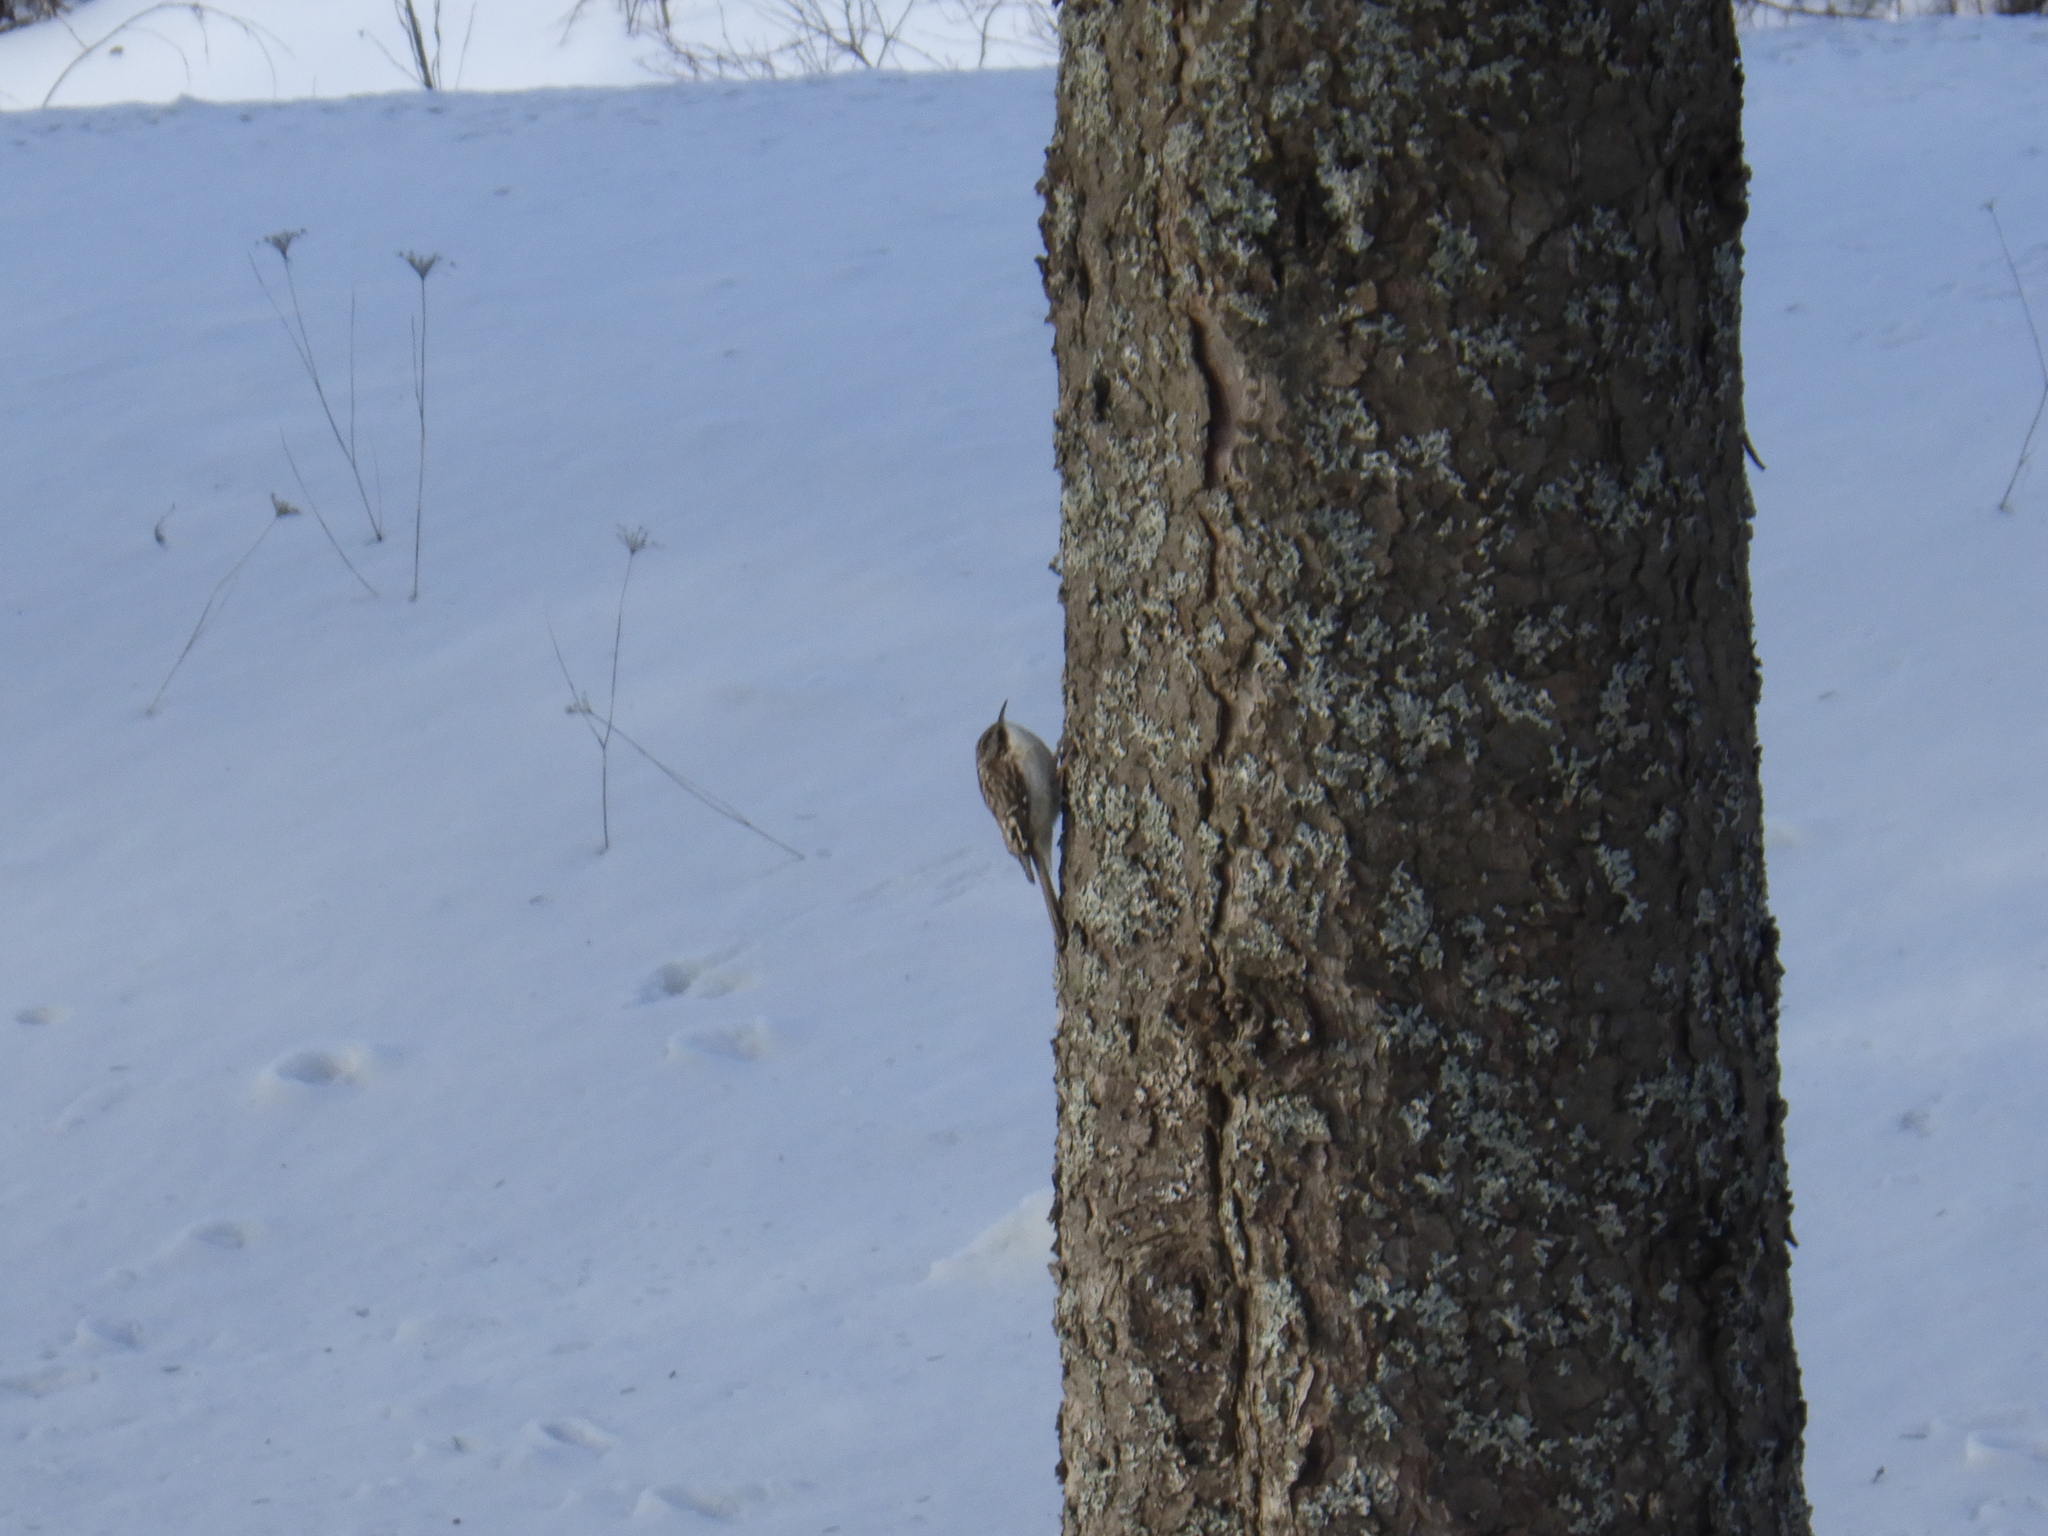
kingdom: Animalia
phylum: Chordata
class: Aves
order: Passeriformes
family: Certhiidae
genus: Certhia
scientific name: Certhia americana
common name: Brown creeper
